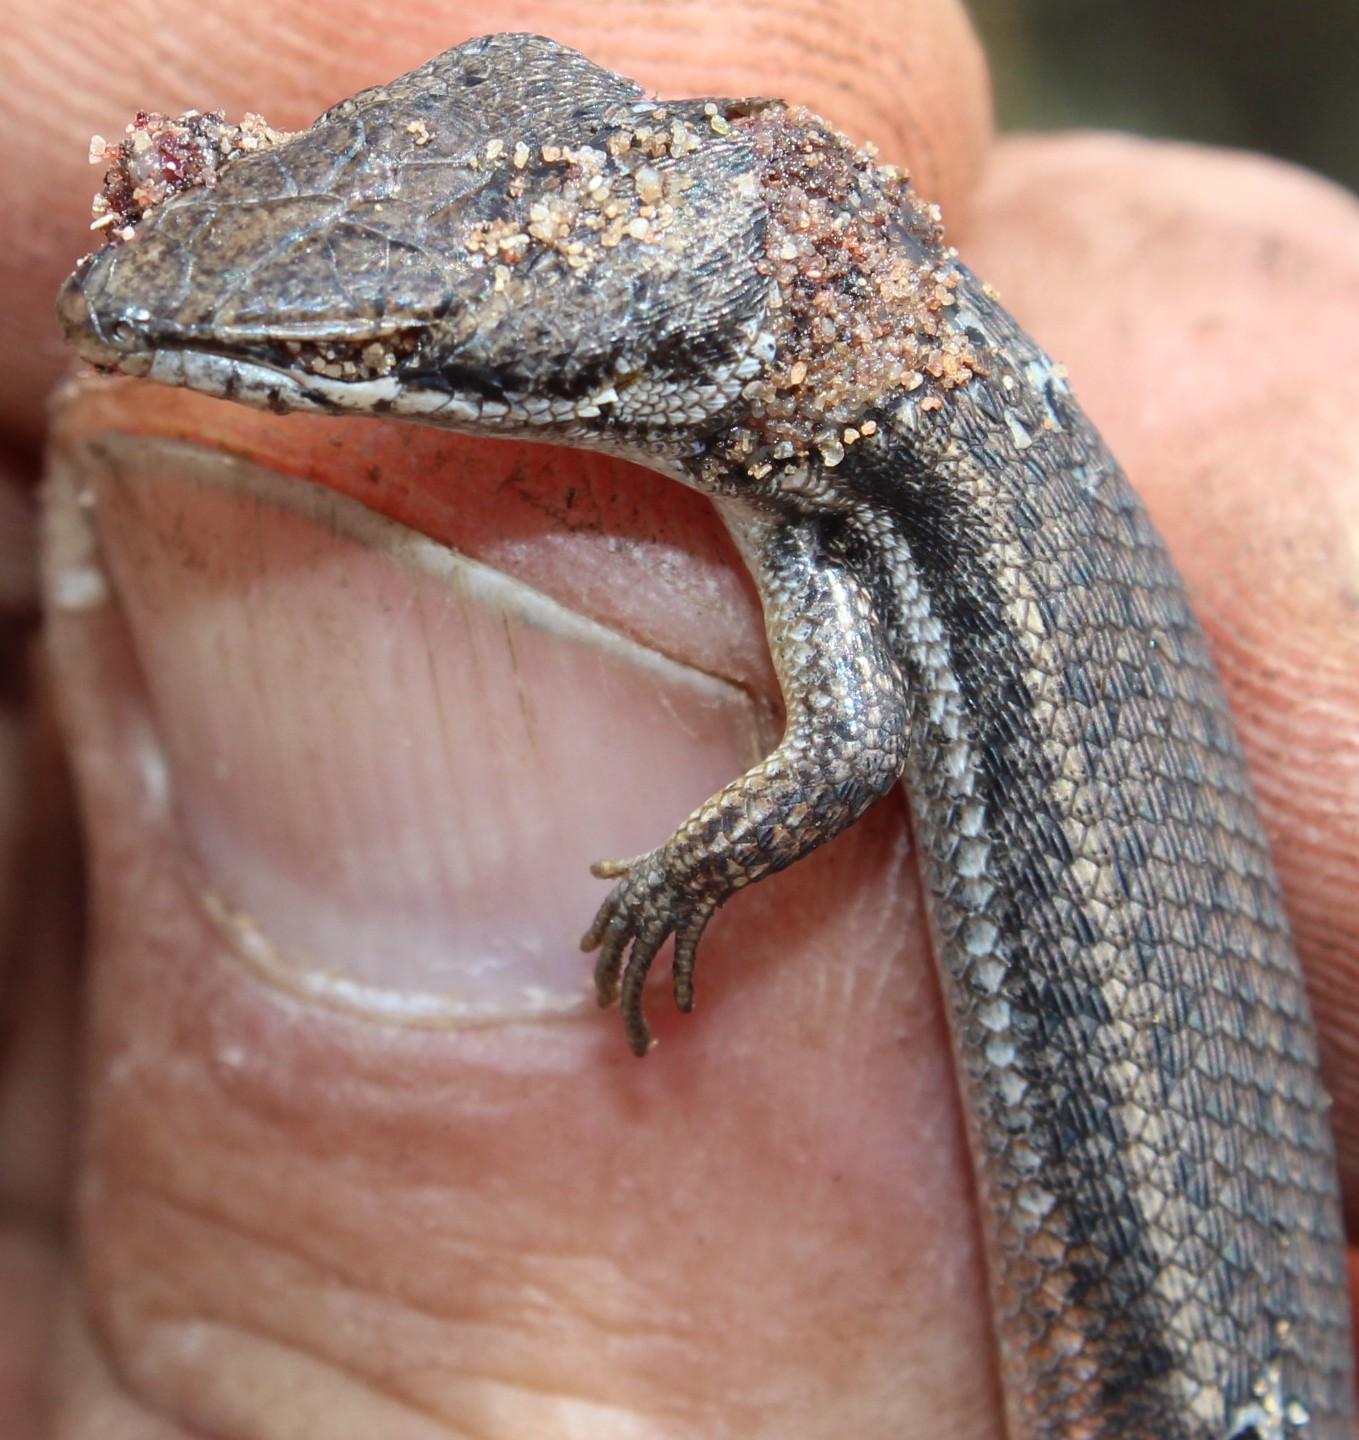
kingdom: Animalia
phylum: Chordata
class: Squamata
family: Scincidae
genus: Trachylepis
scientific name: Trachylepis variegata
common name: Variegated skink
